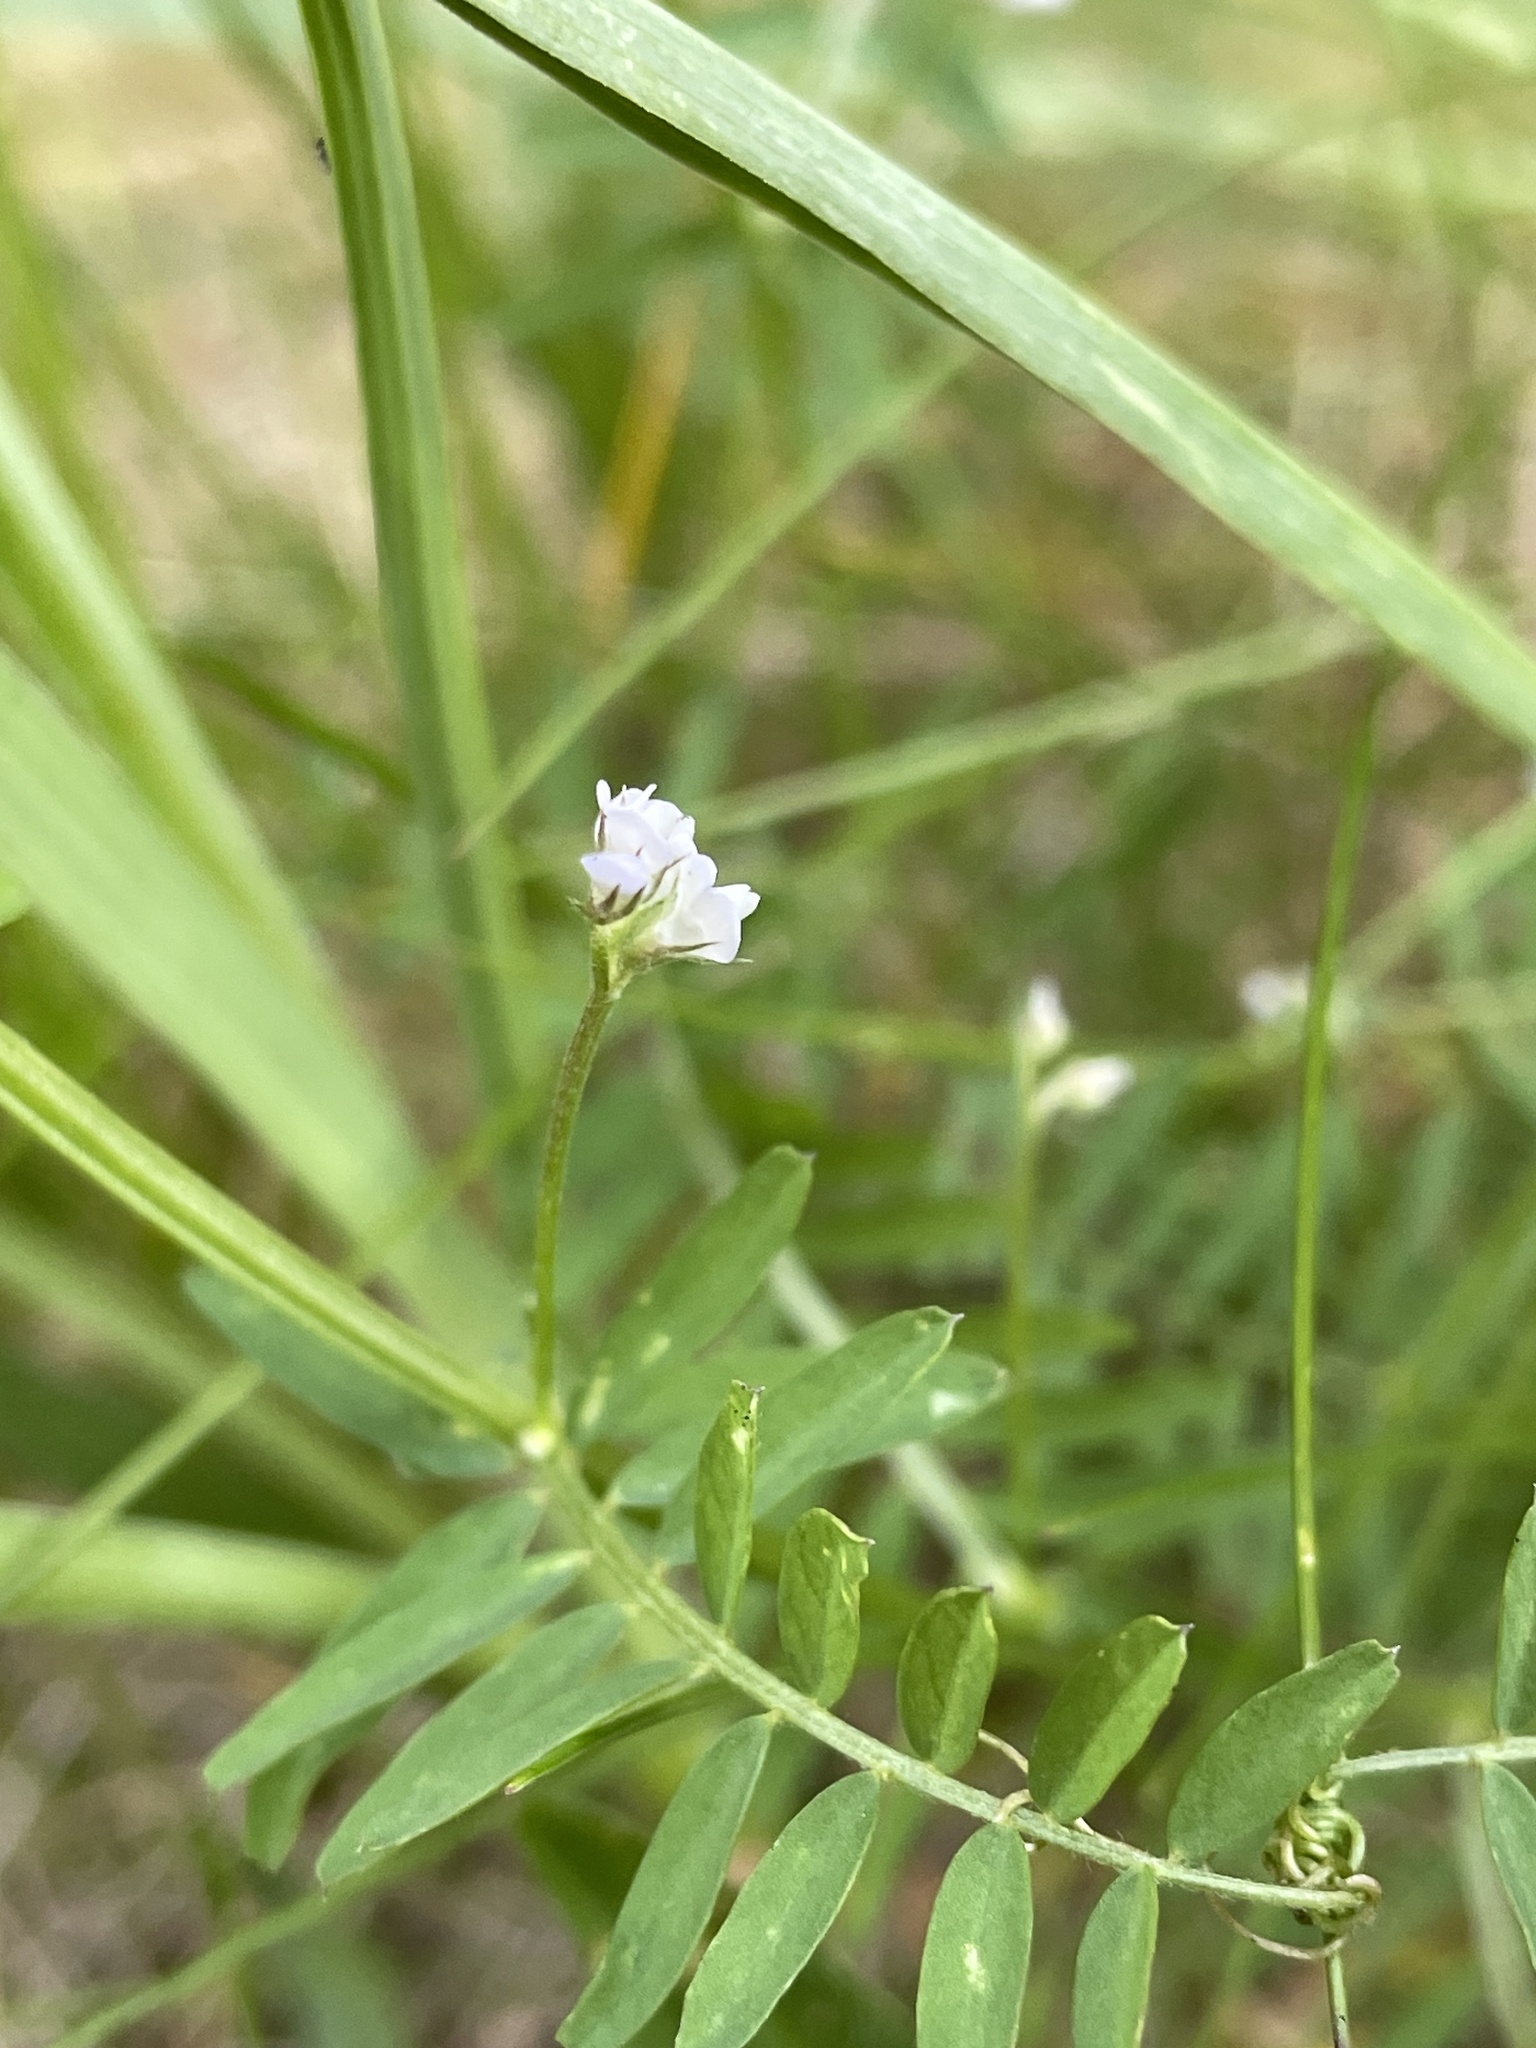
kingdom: Plantae
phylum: Tracheophyta
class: Magnoliopsida
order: Fabales
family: Fabaceae
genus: Vicia
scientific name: Vicia hirsuta
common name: Tiny vetch
